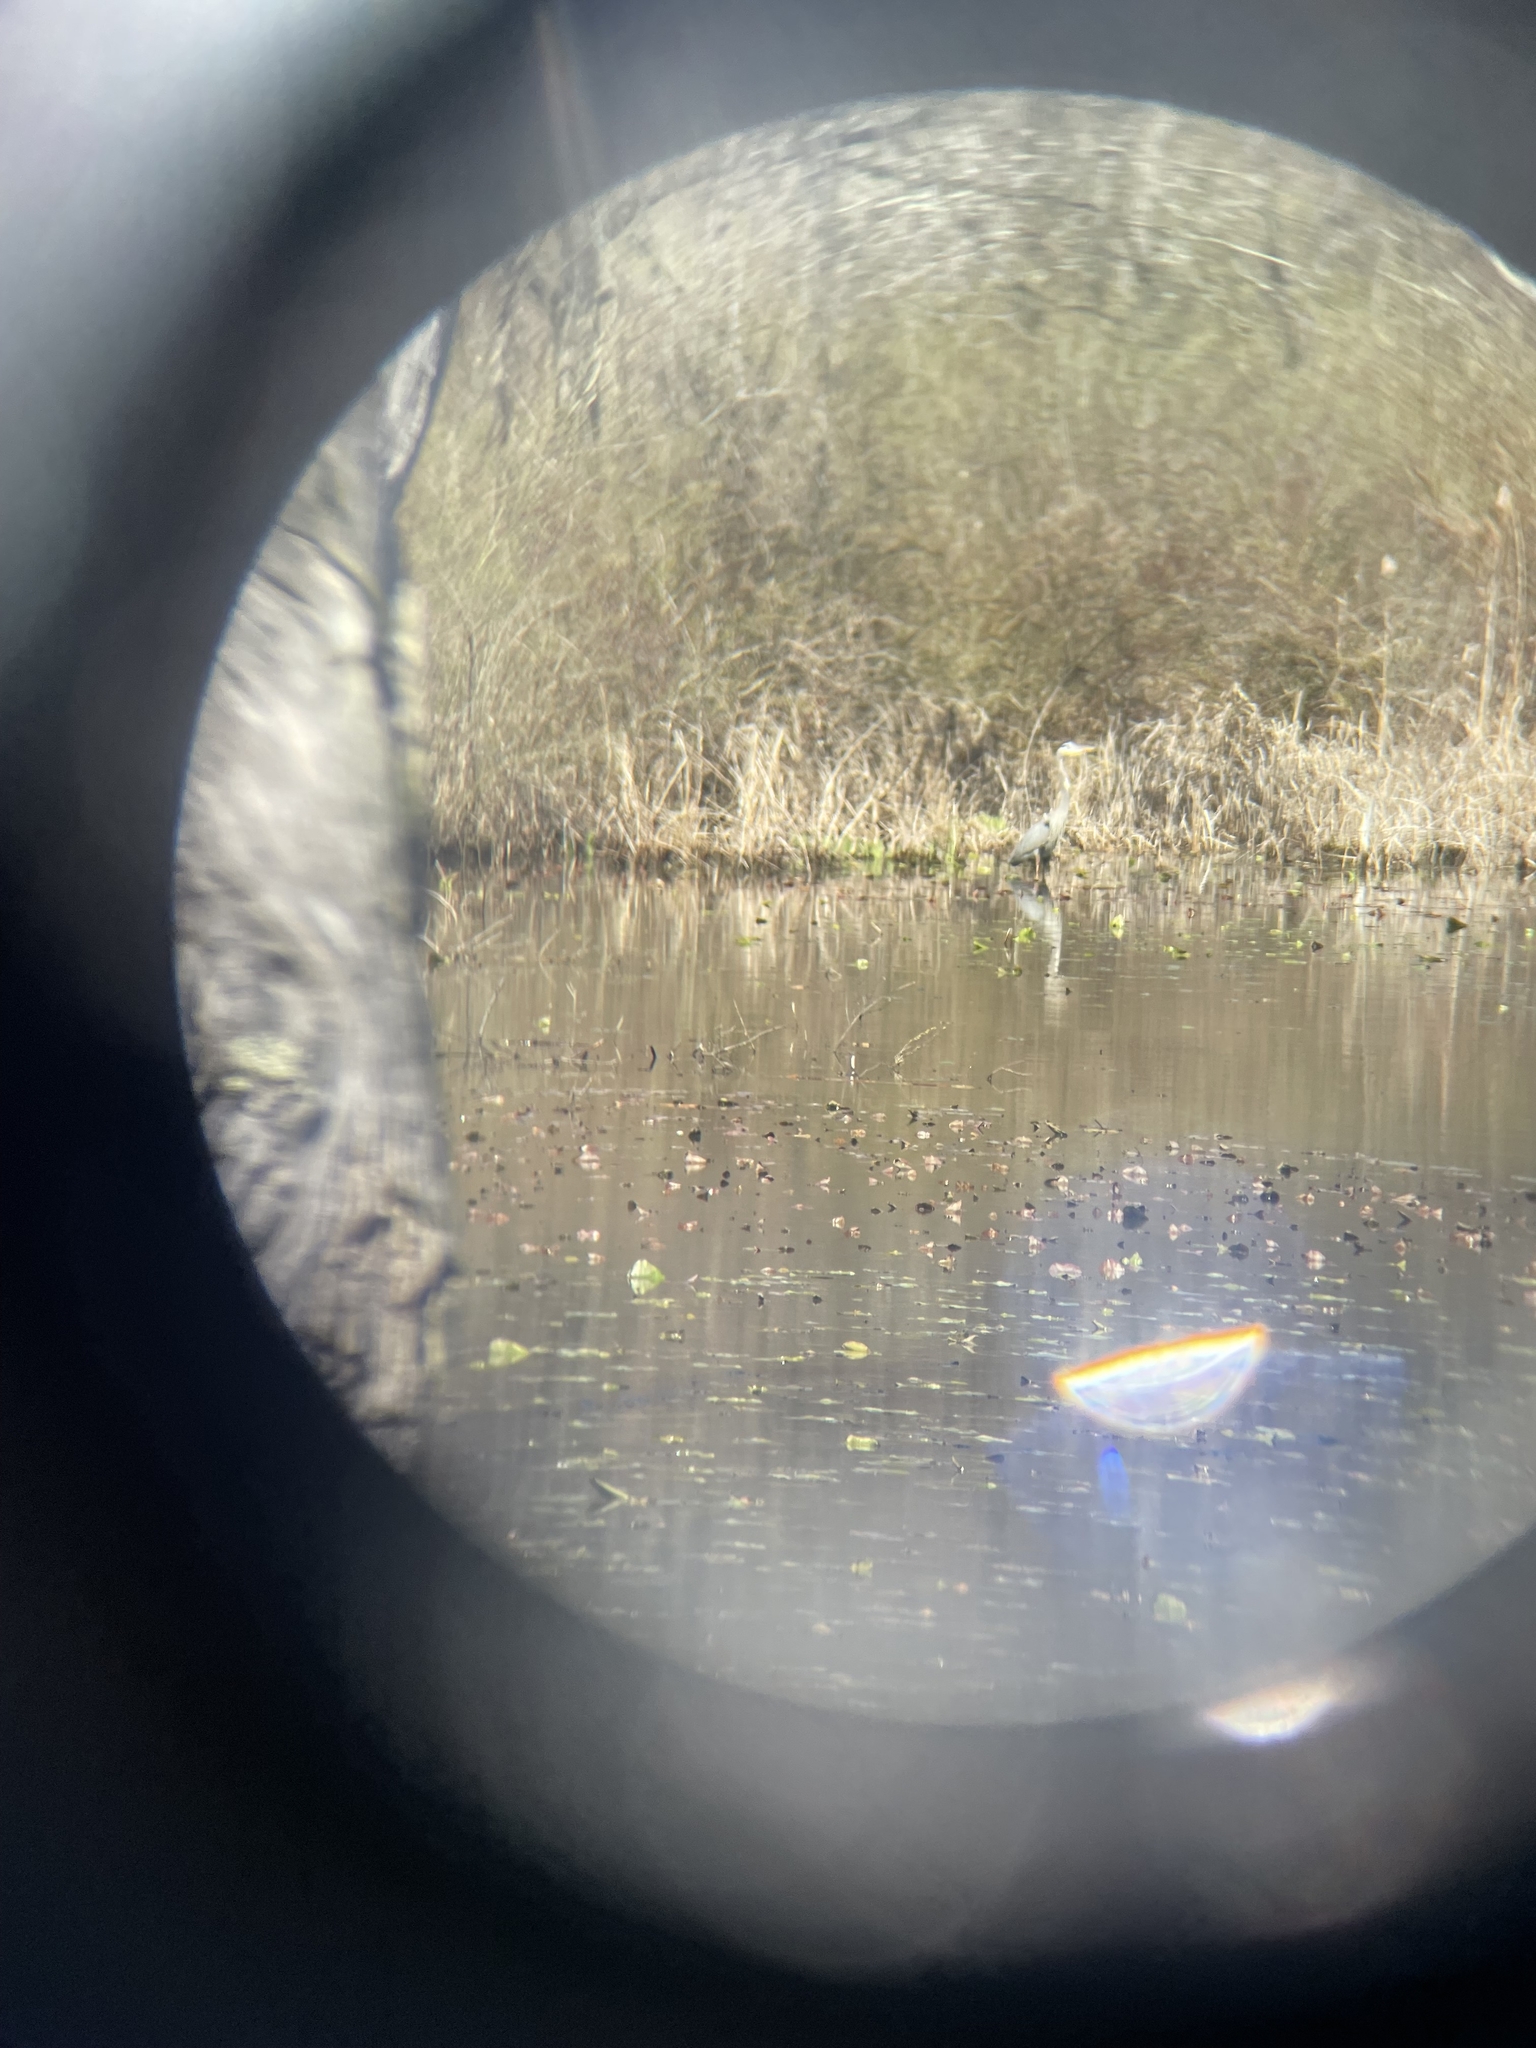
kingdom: Animalia
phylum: Chordata
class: Aves
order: Pelecaniformes
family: Ardeidae
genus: Ardea
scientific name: Ardea herodias
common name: Great blue heron
